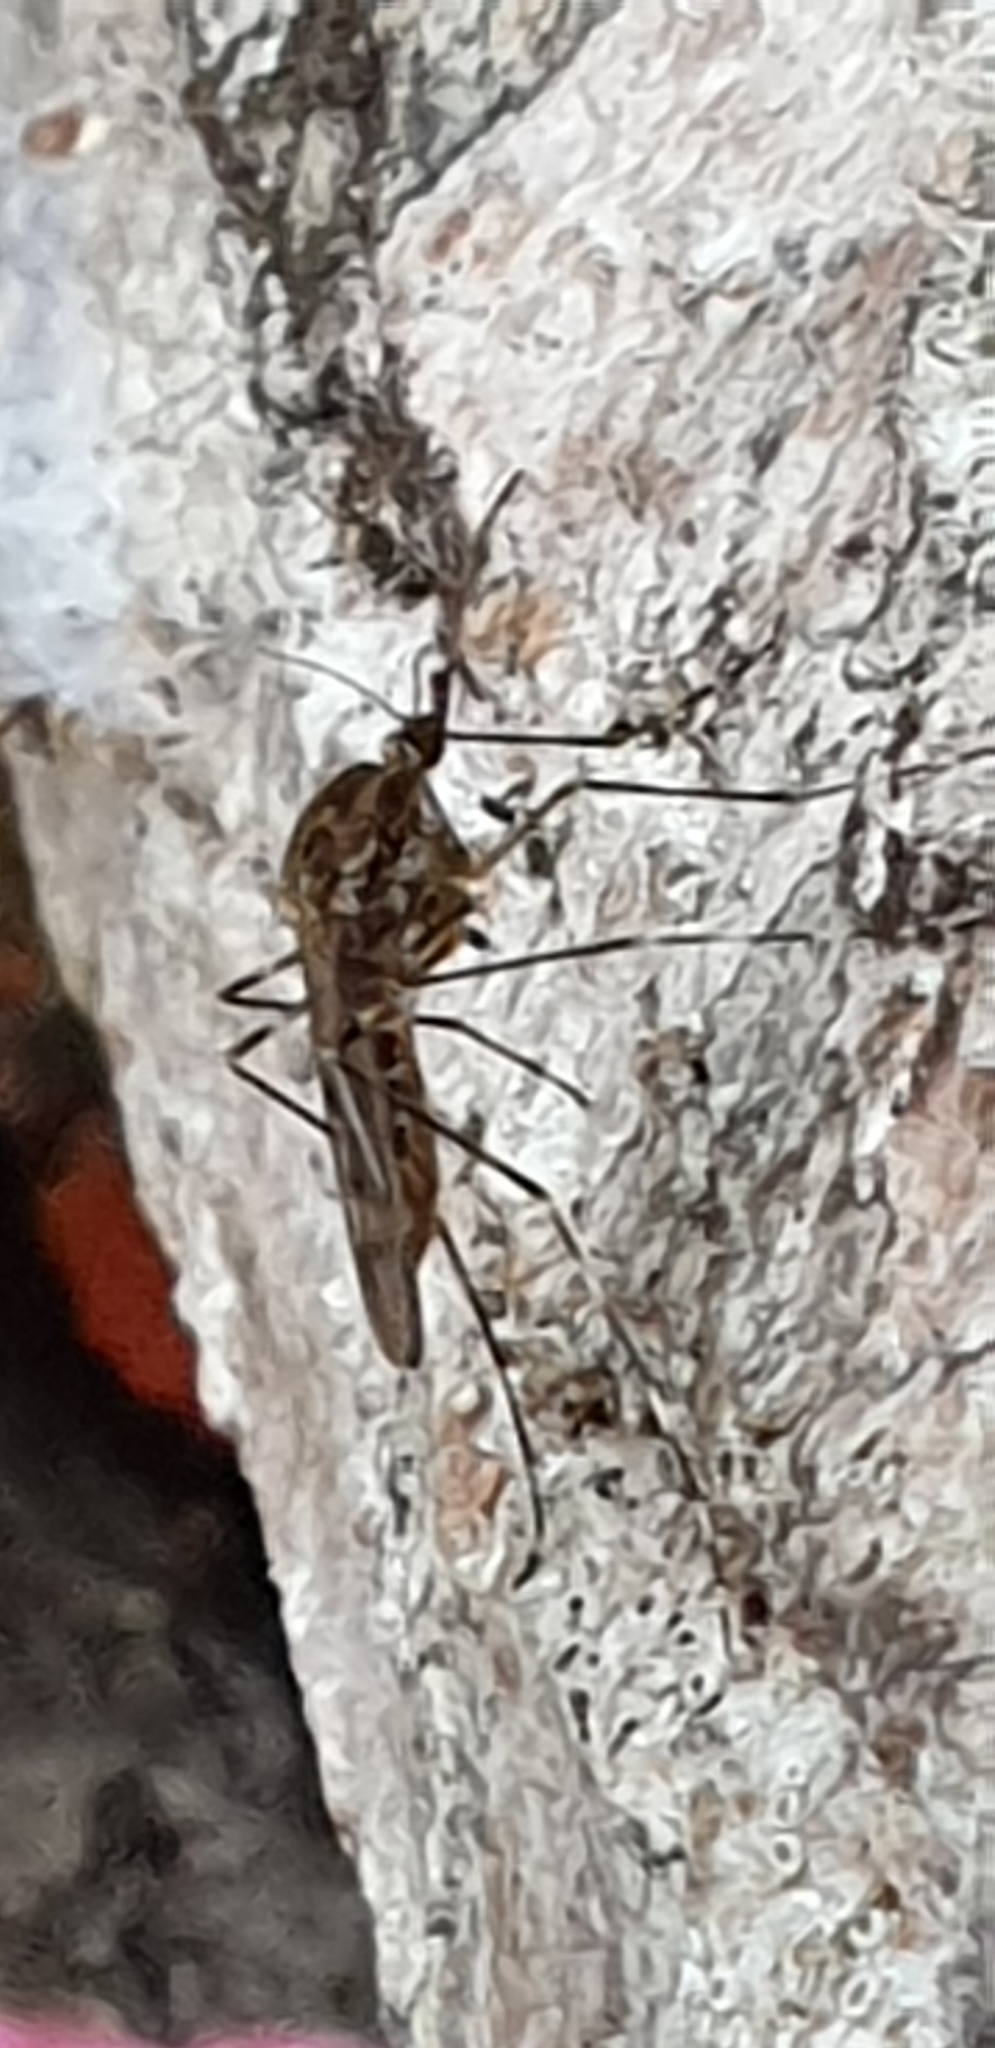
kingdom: Animalia
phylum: Arthropoda
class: Insecta
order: Diptera
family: Culicidae
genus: Culiseta
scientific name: Culiseta annulata
